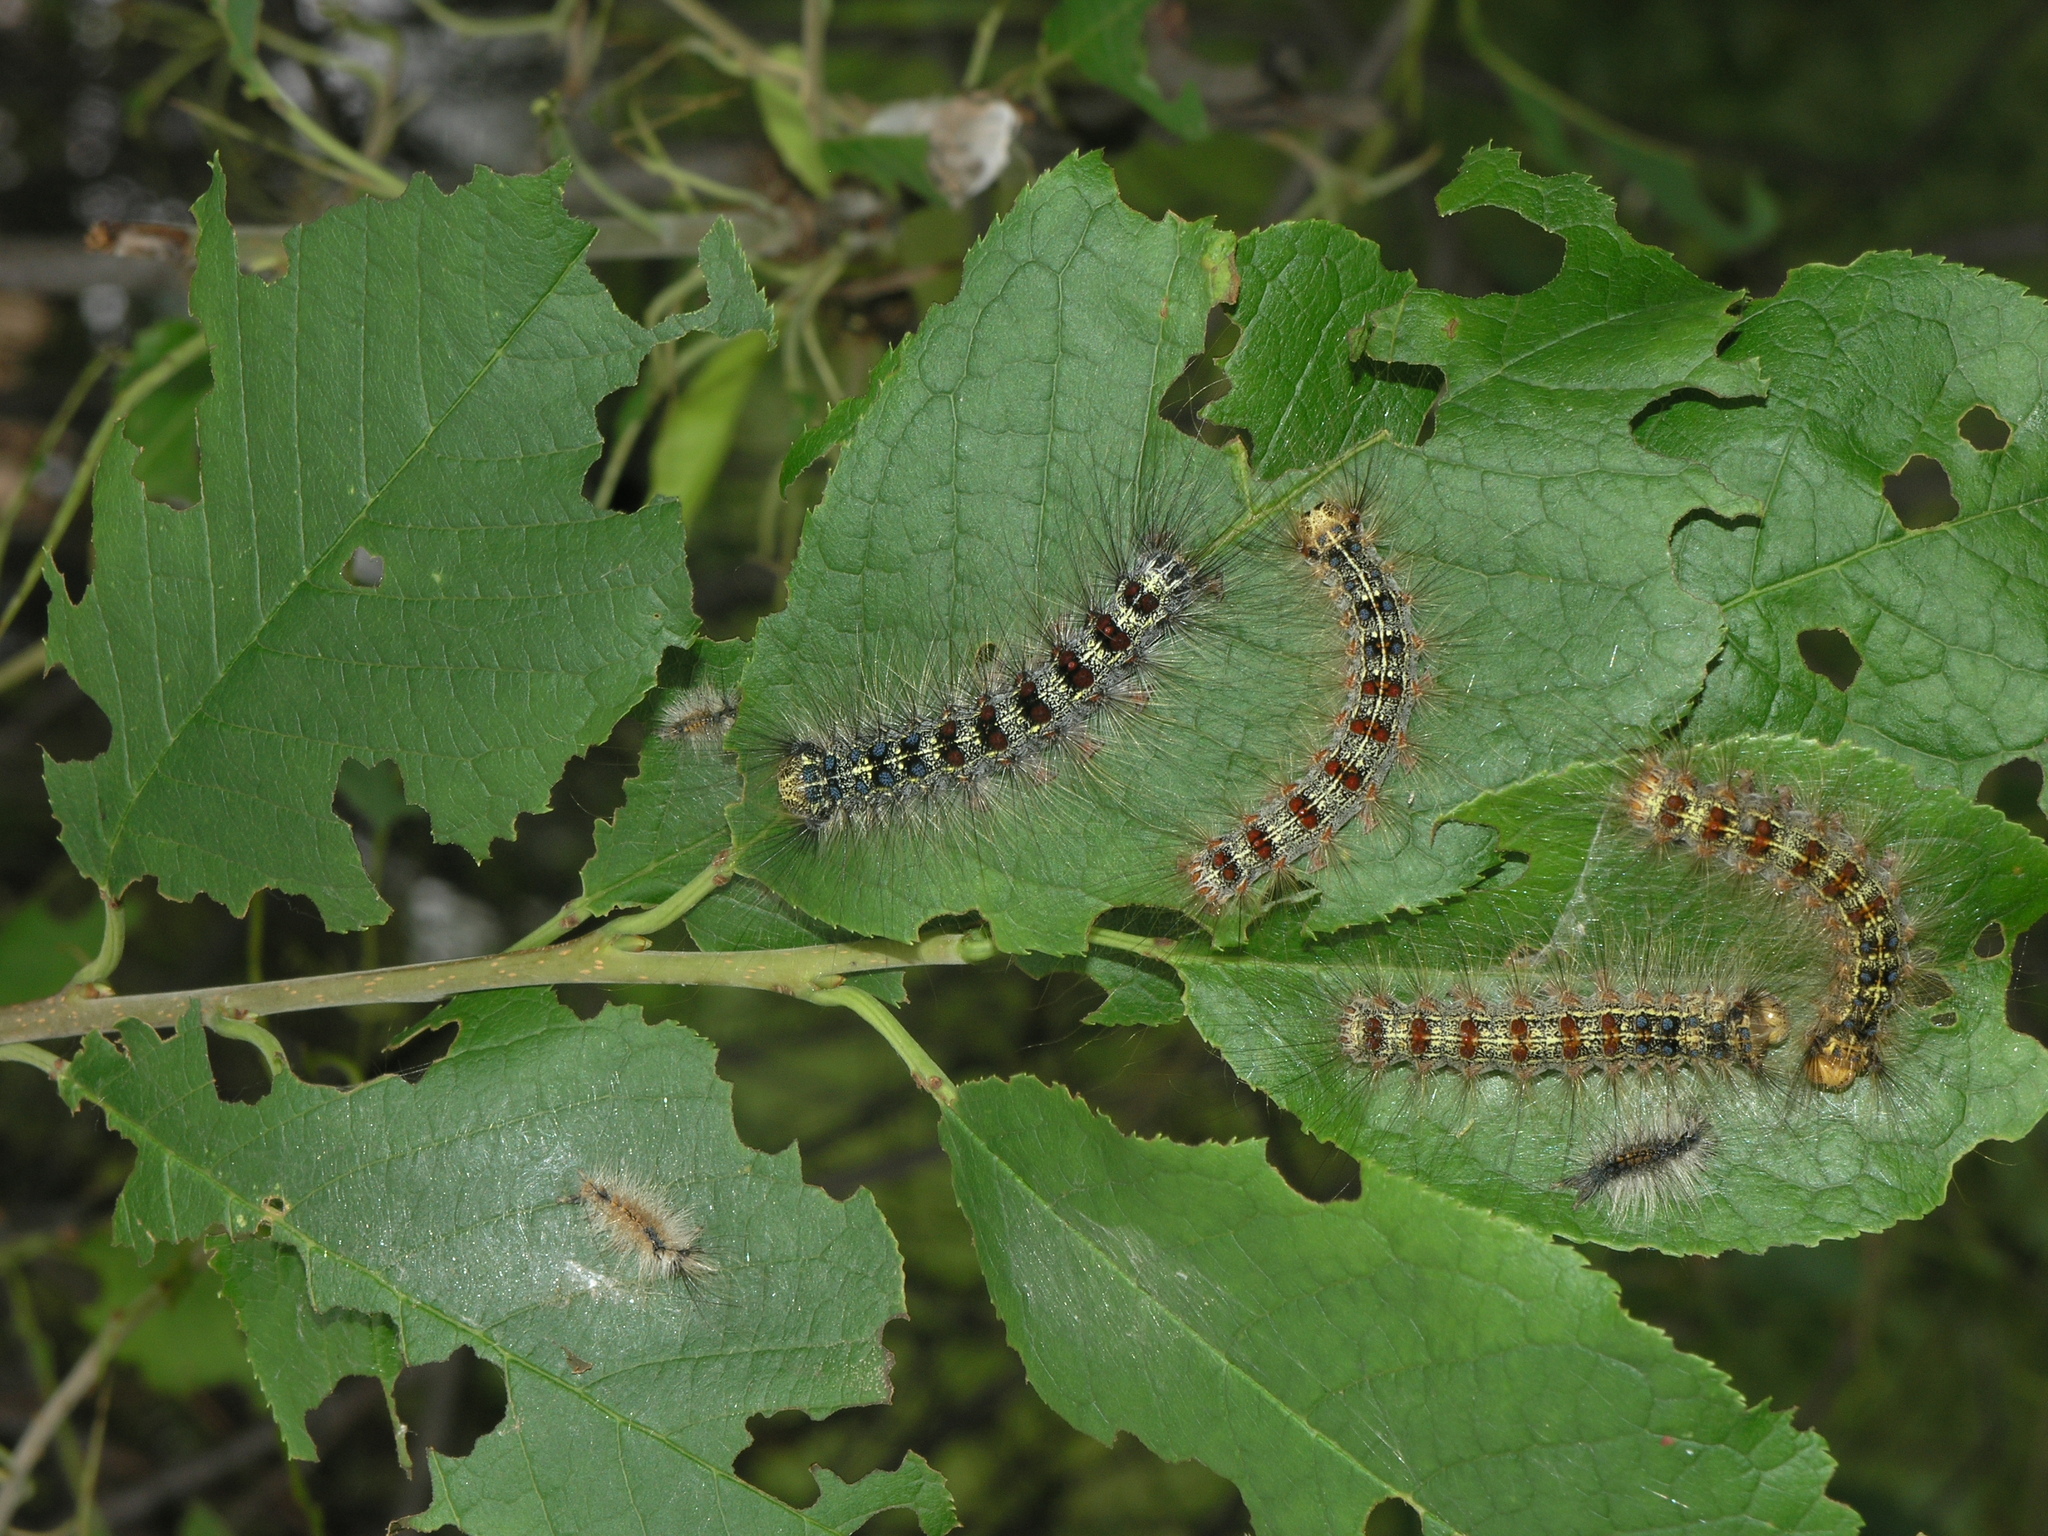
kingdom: Animalia
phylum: Arthropoda
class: Insecta
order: Lepidoptera
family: Erebidae
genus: Lymantria
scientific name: Lymantria dispar
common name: Gypsy moth
